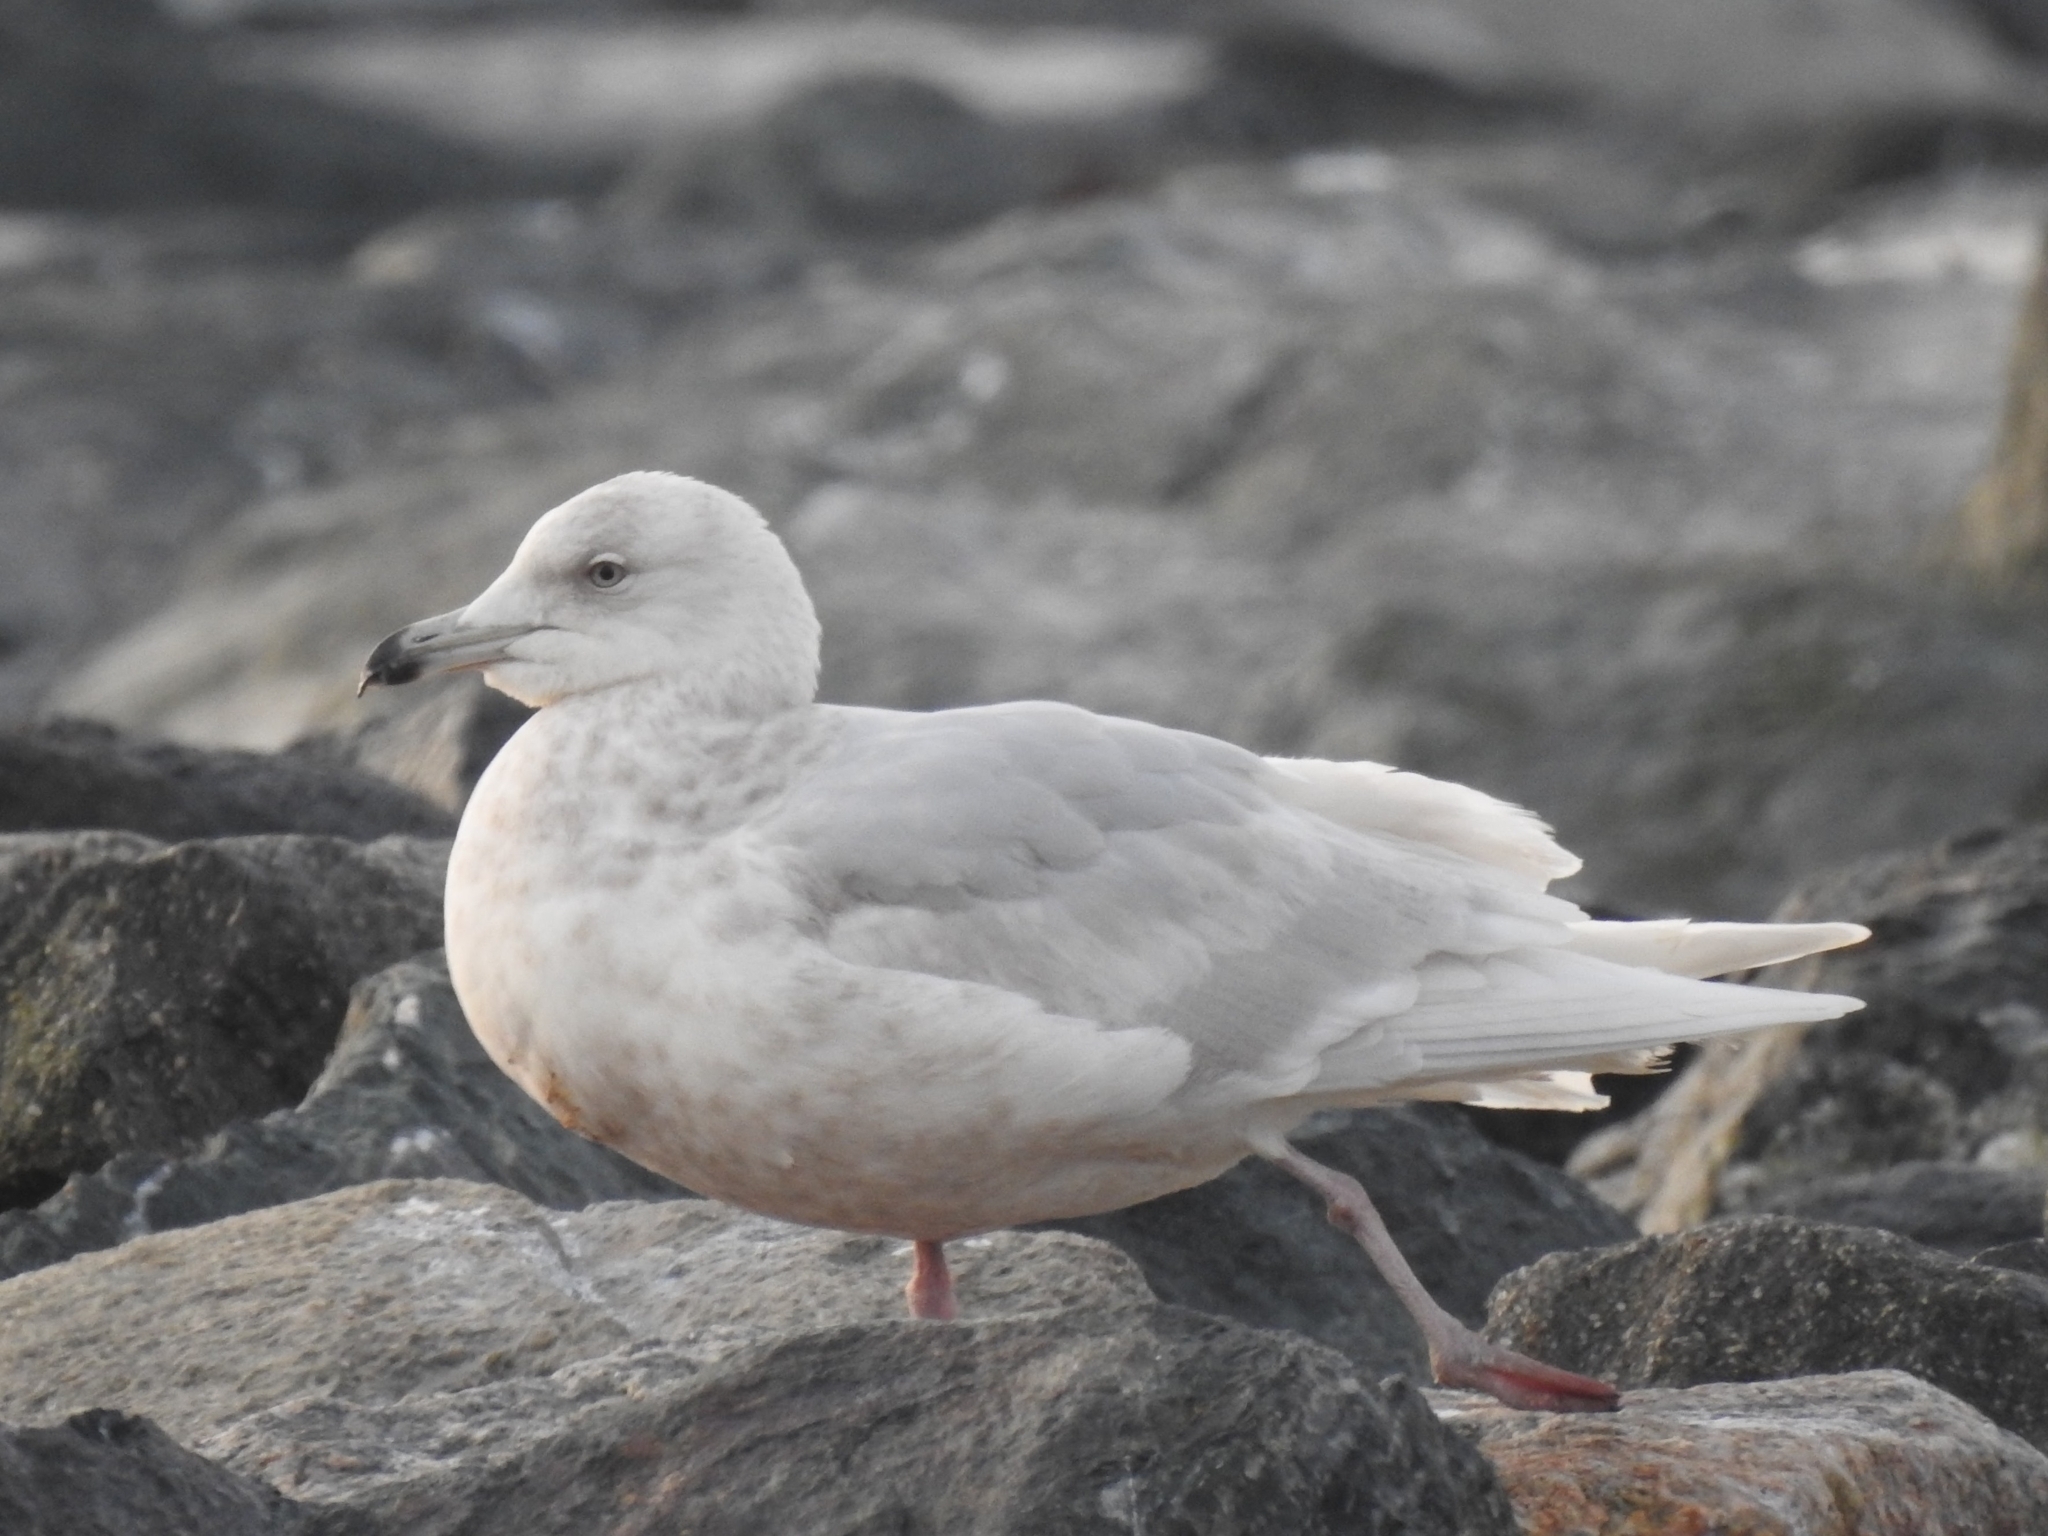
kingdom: Animalia
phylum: Chordata
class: Aves
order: Charadriiformes
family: Laridae
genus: Larus
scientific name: Larus hyperboreus
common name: Glaucous gull
